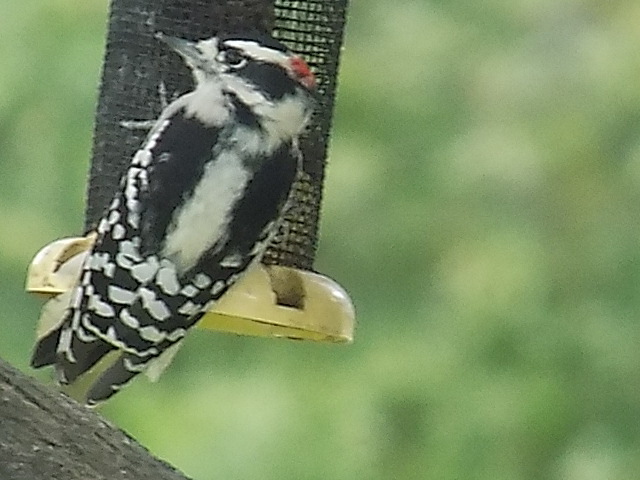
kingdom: Animalia
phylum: Chordata
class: Aves
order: Piciformes
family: Picidae
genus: Dryobates
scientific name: Dryobates pubescens
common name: Downy woodpecker
